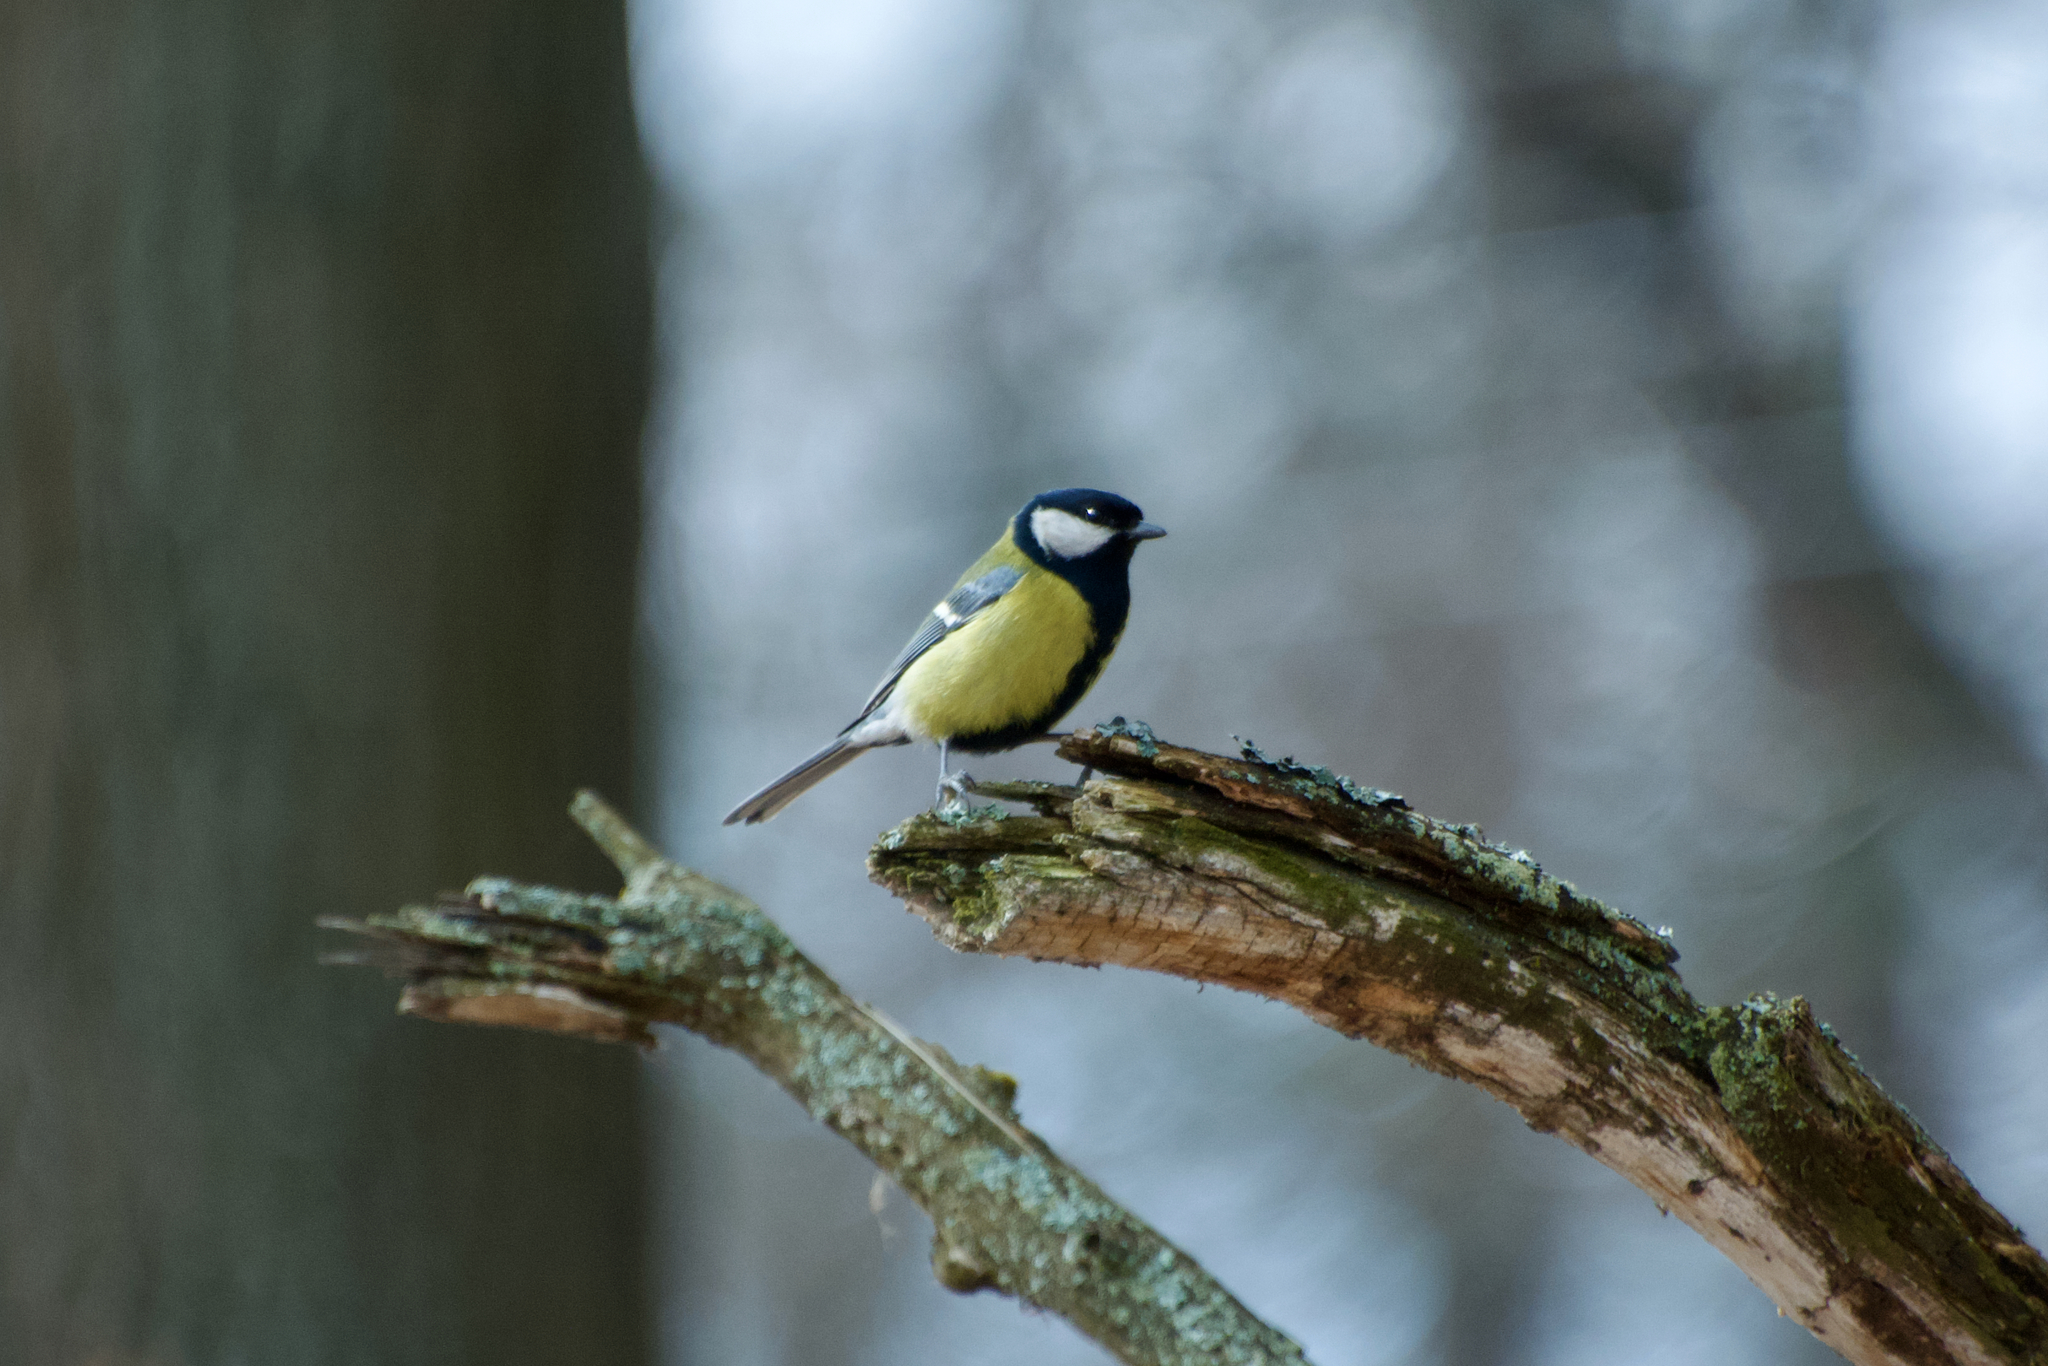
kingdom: Animalia
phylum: Chordata
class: Aves
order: Passeriformes
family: Paridae
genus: Parus
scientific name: Parus major
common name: Great tit
